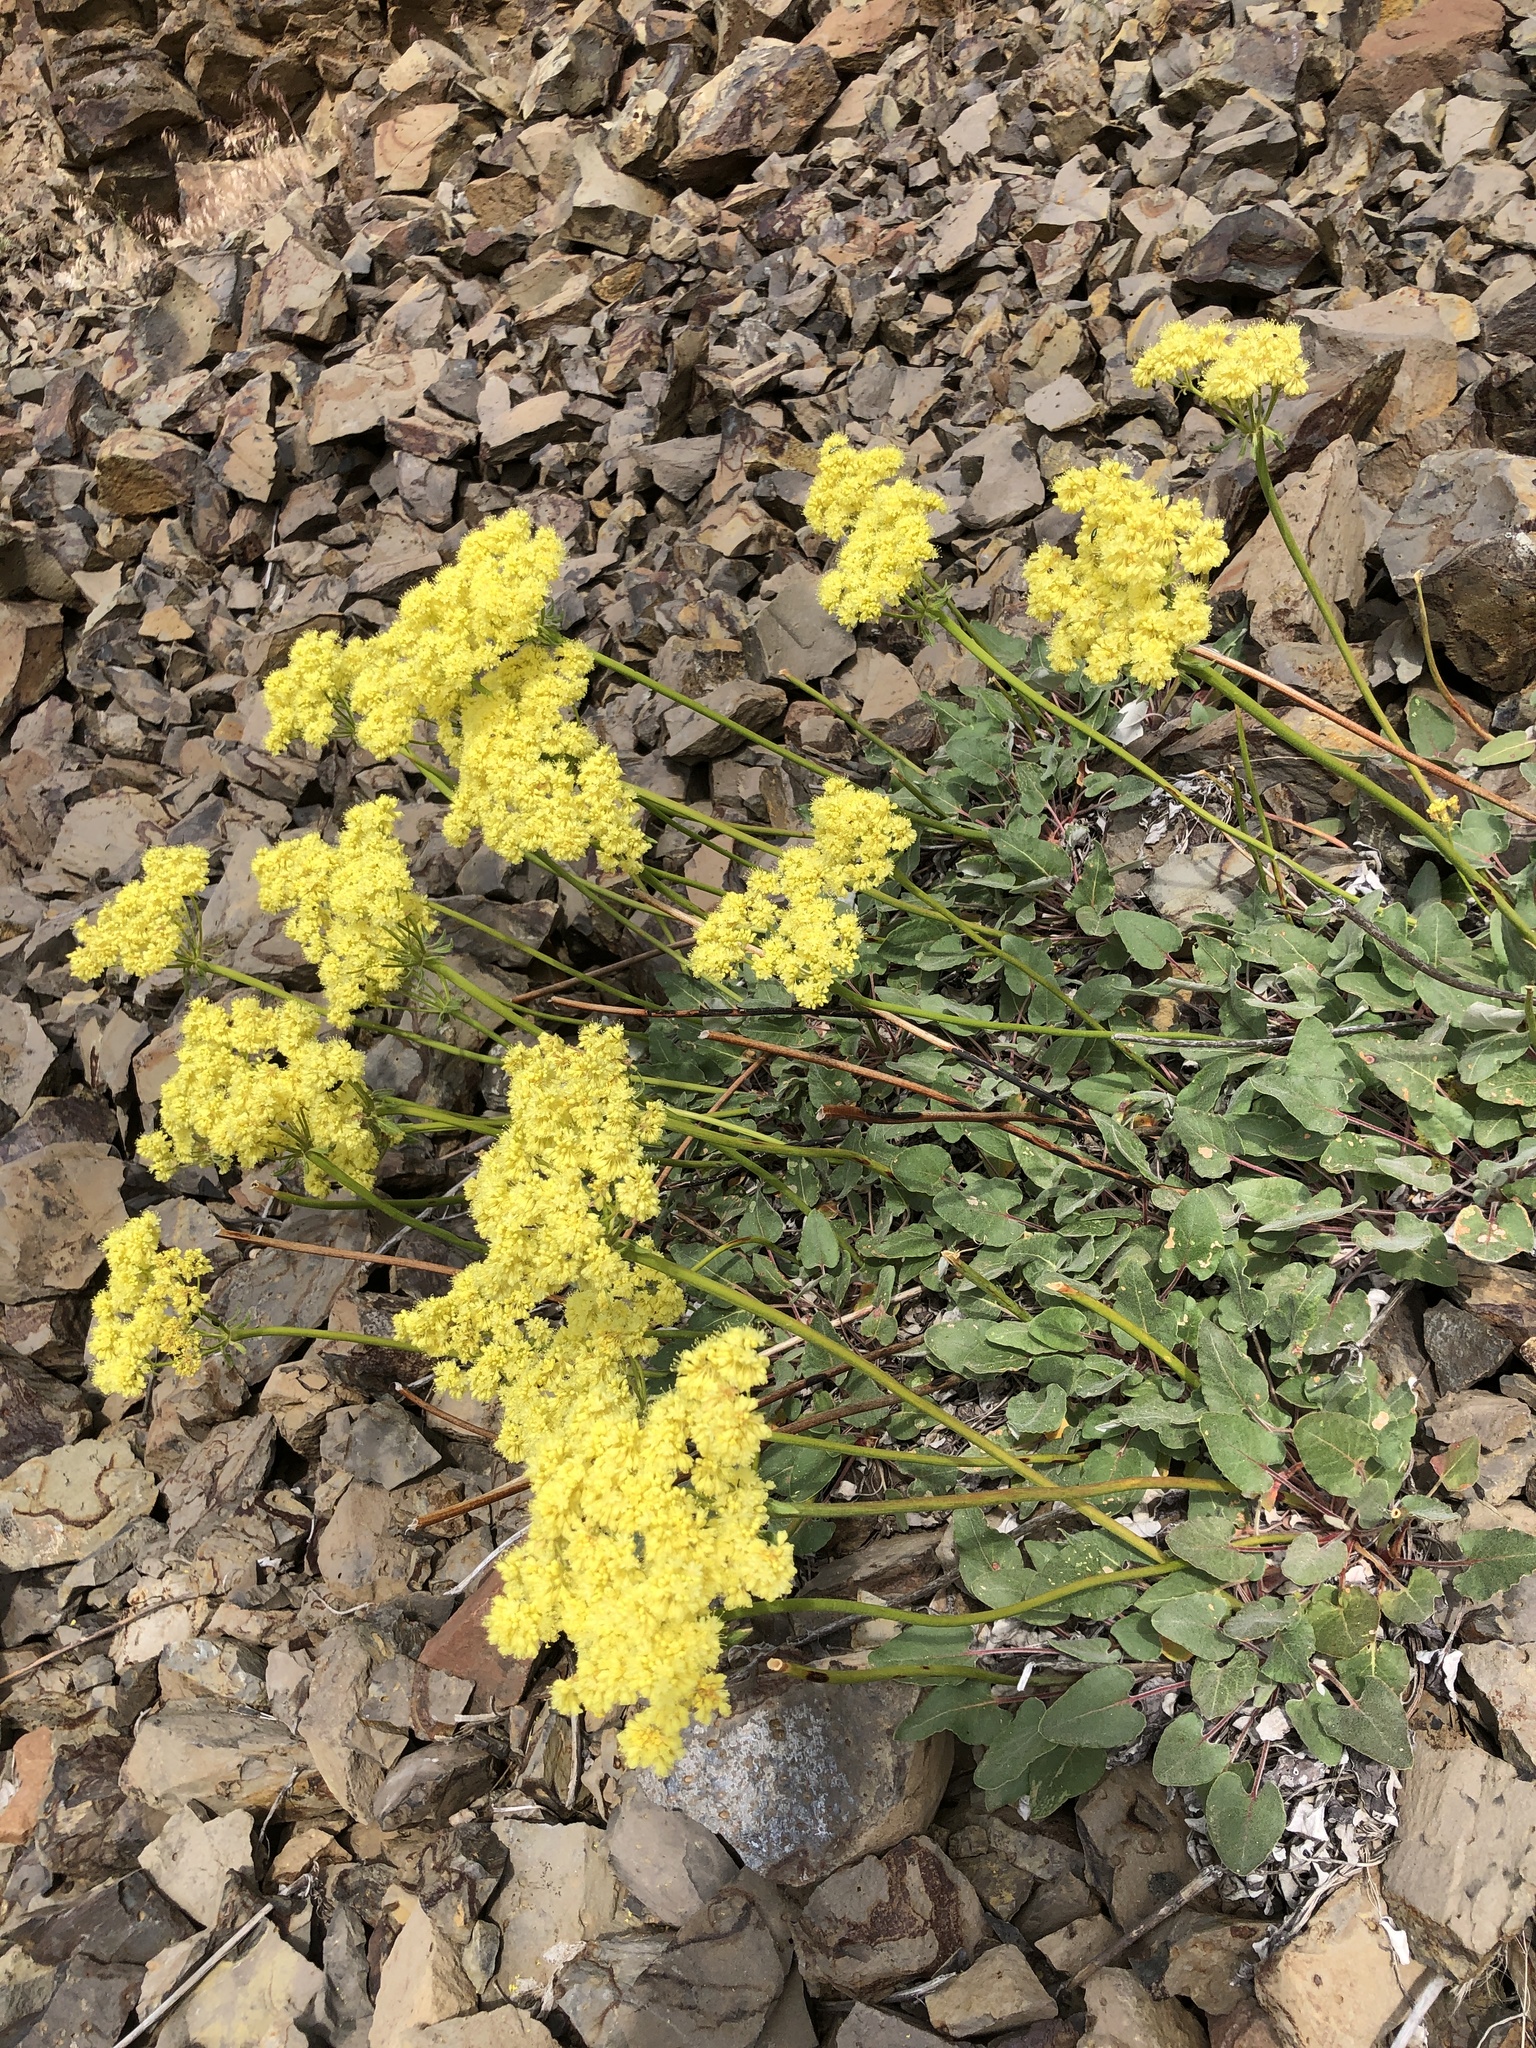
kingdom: Plantae
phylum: Tracheophyta
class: Magnoliopsida
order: Caryophyllales
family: Polygonaceae
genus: Eriogonum
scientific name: Eriogonum compositum
